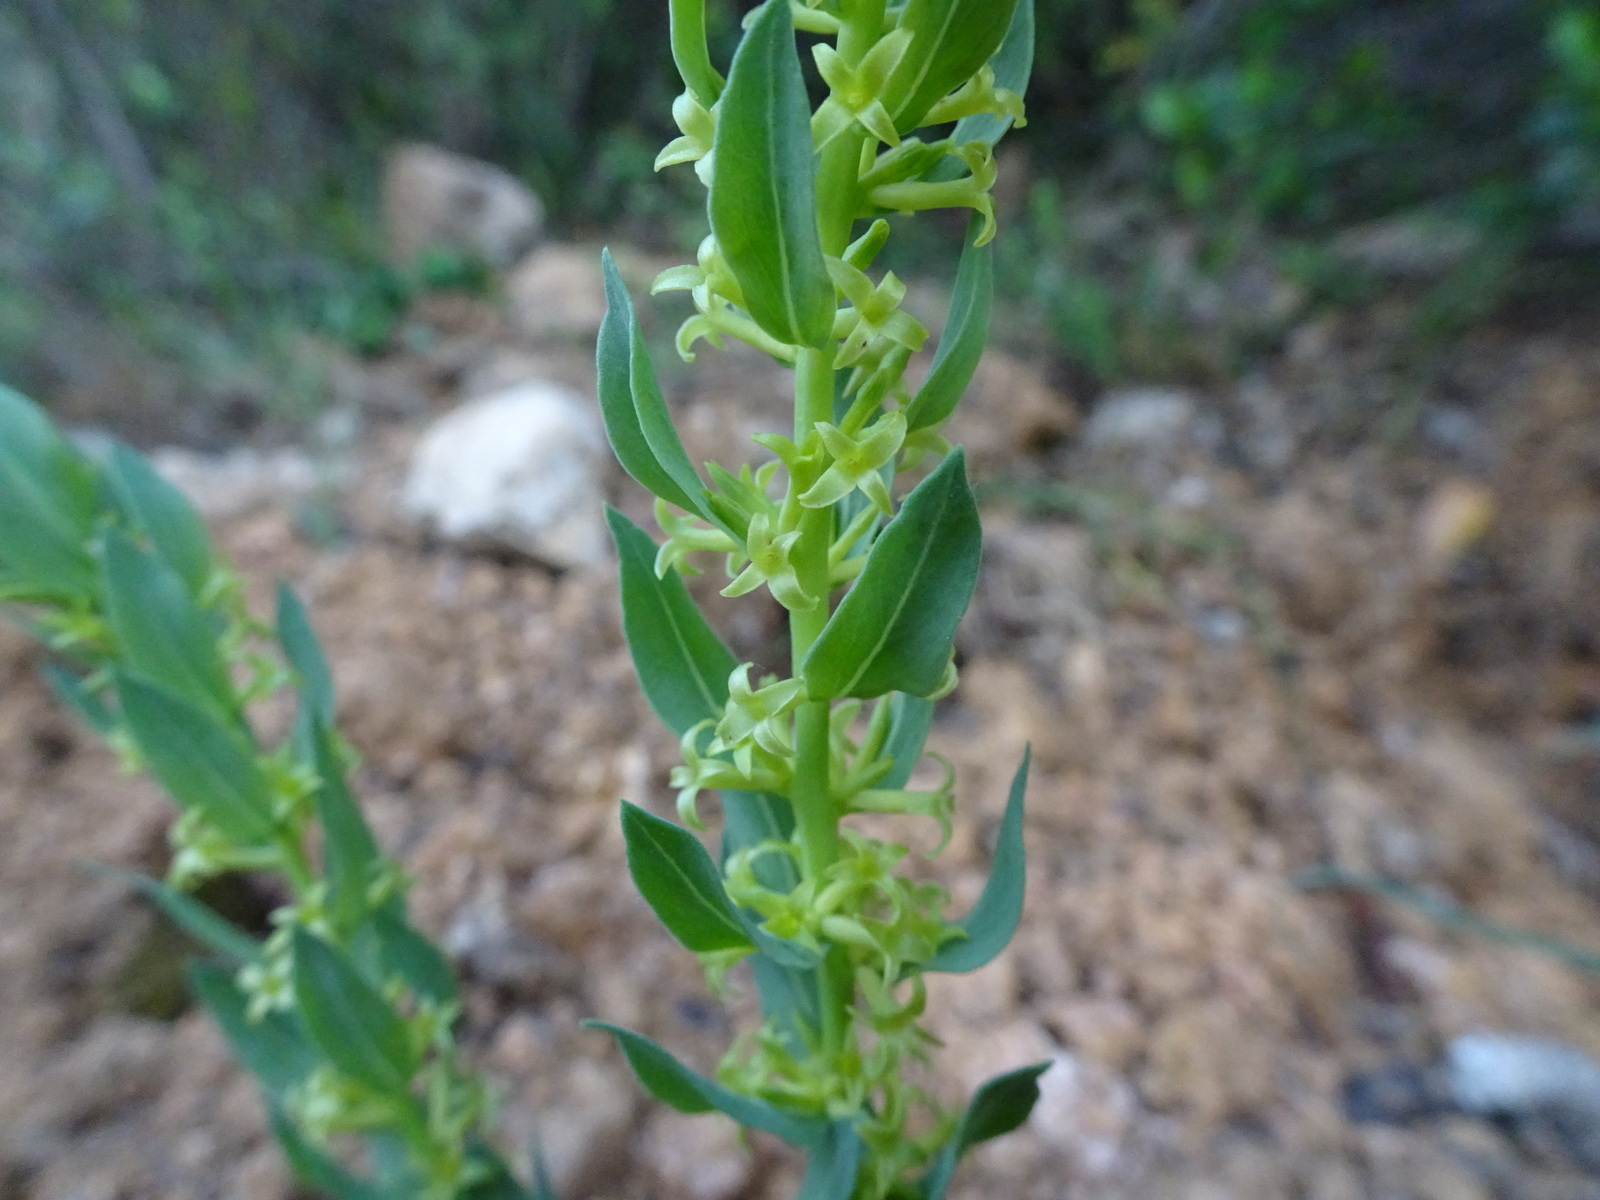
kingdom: Plantae
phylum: Tracheophyta
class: Magnoliopsida
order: Malvales
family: Thymelaeaceae
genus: Thymelaea
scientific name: Thymelaea sanamunda
